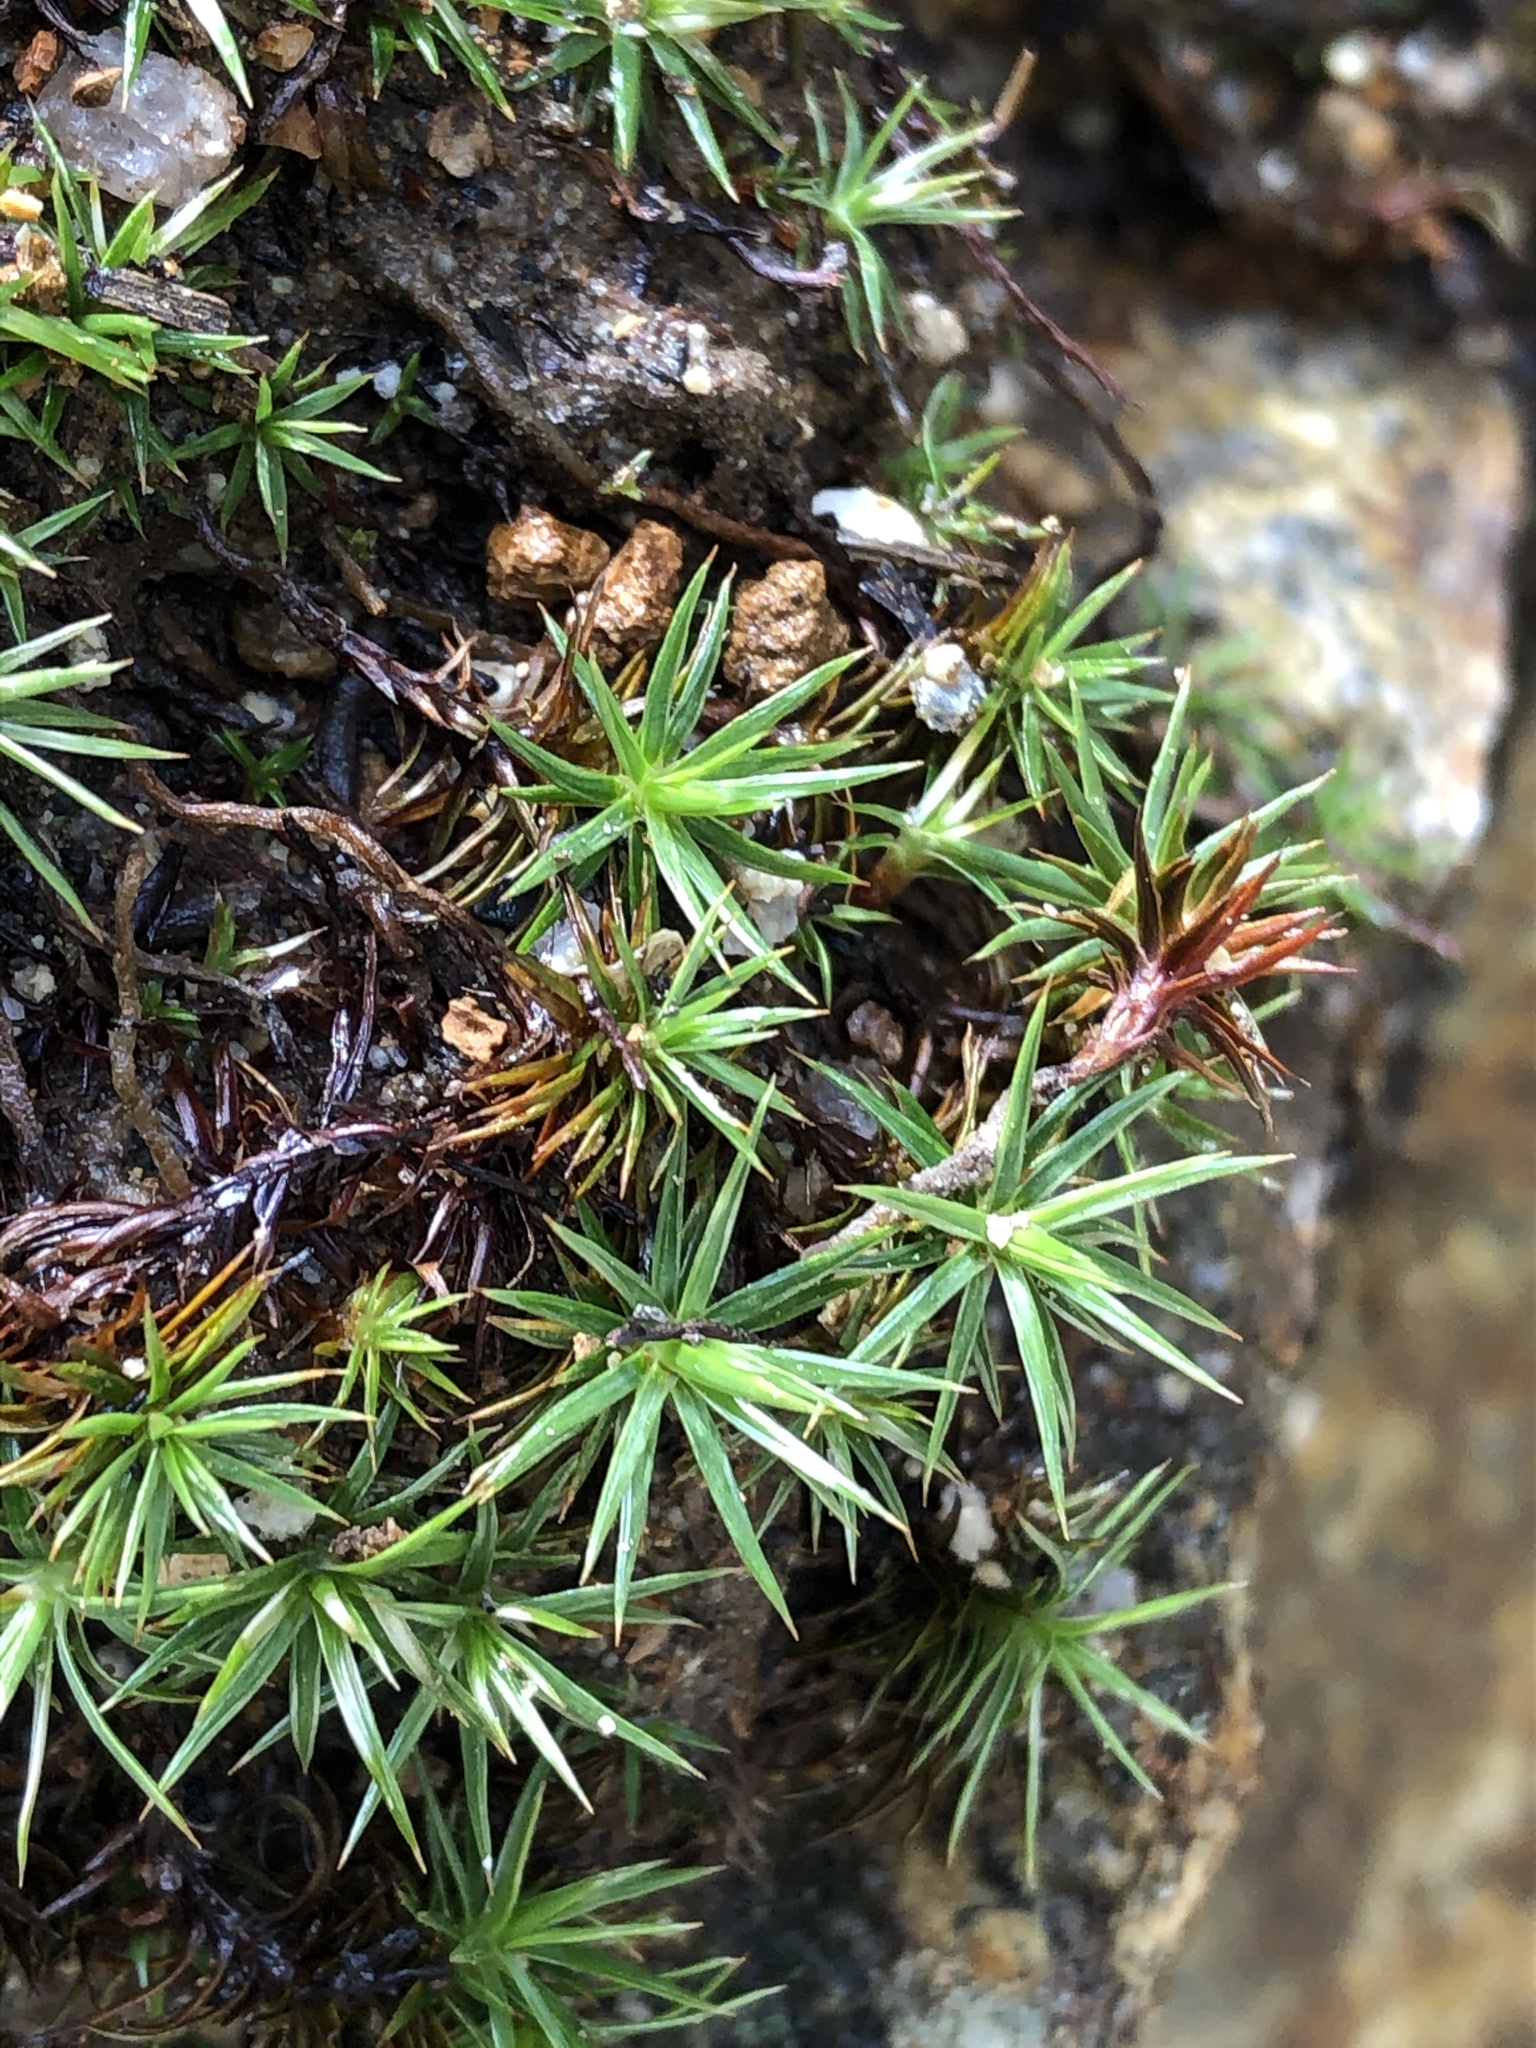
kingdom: Plantae
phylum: Bryophyta
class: Polytrichopsida
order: Polytrichales
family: Polytrichaceae
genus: Polytrichum
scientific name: Polytrichum juniperinum
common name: Juniper haircap moss
